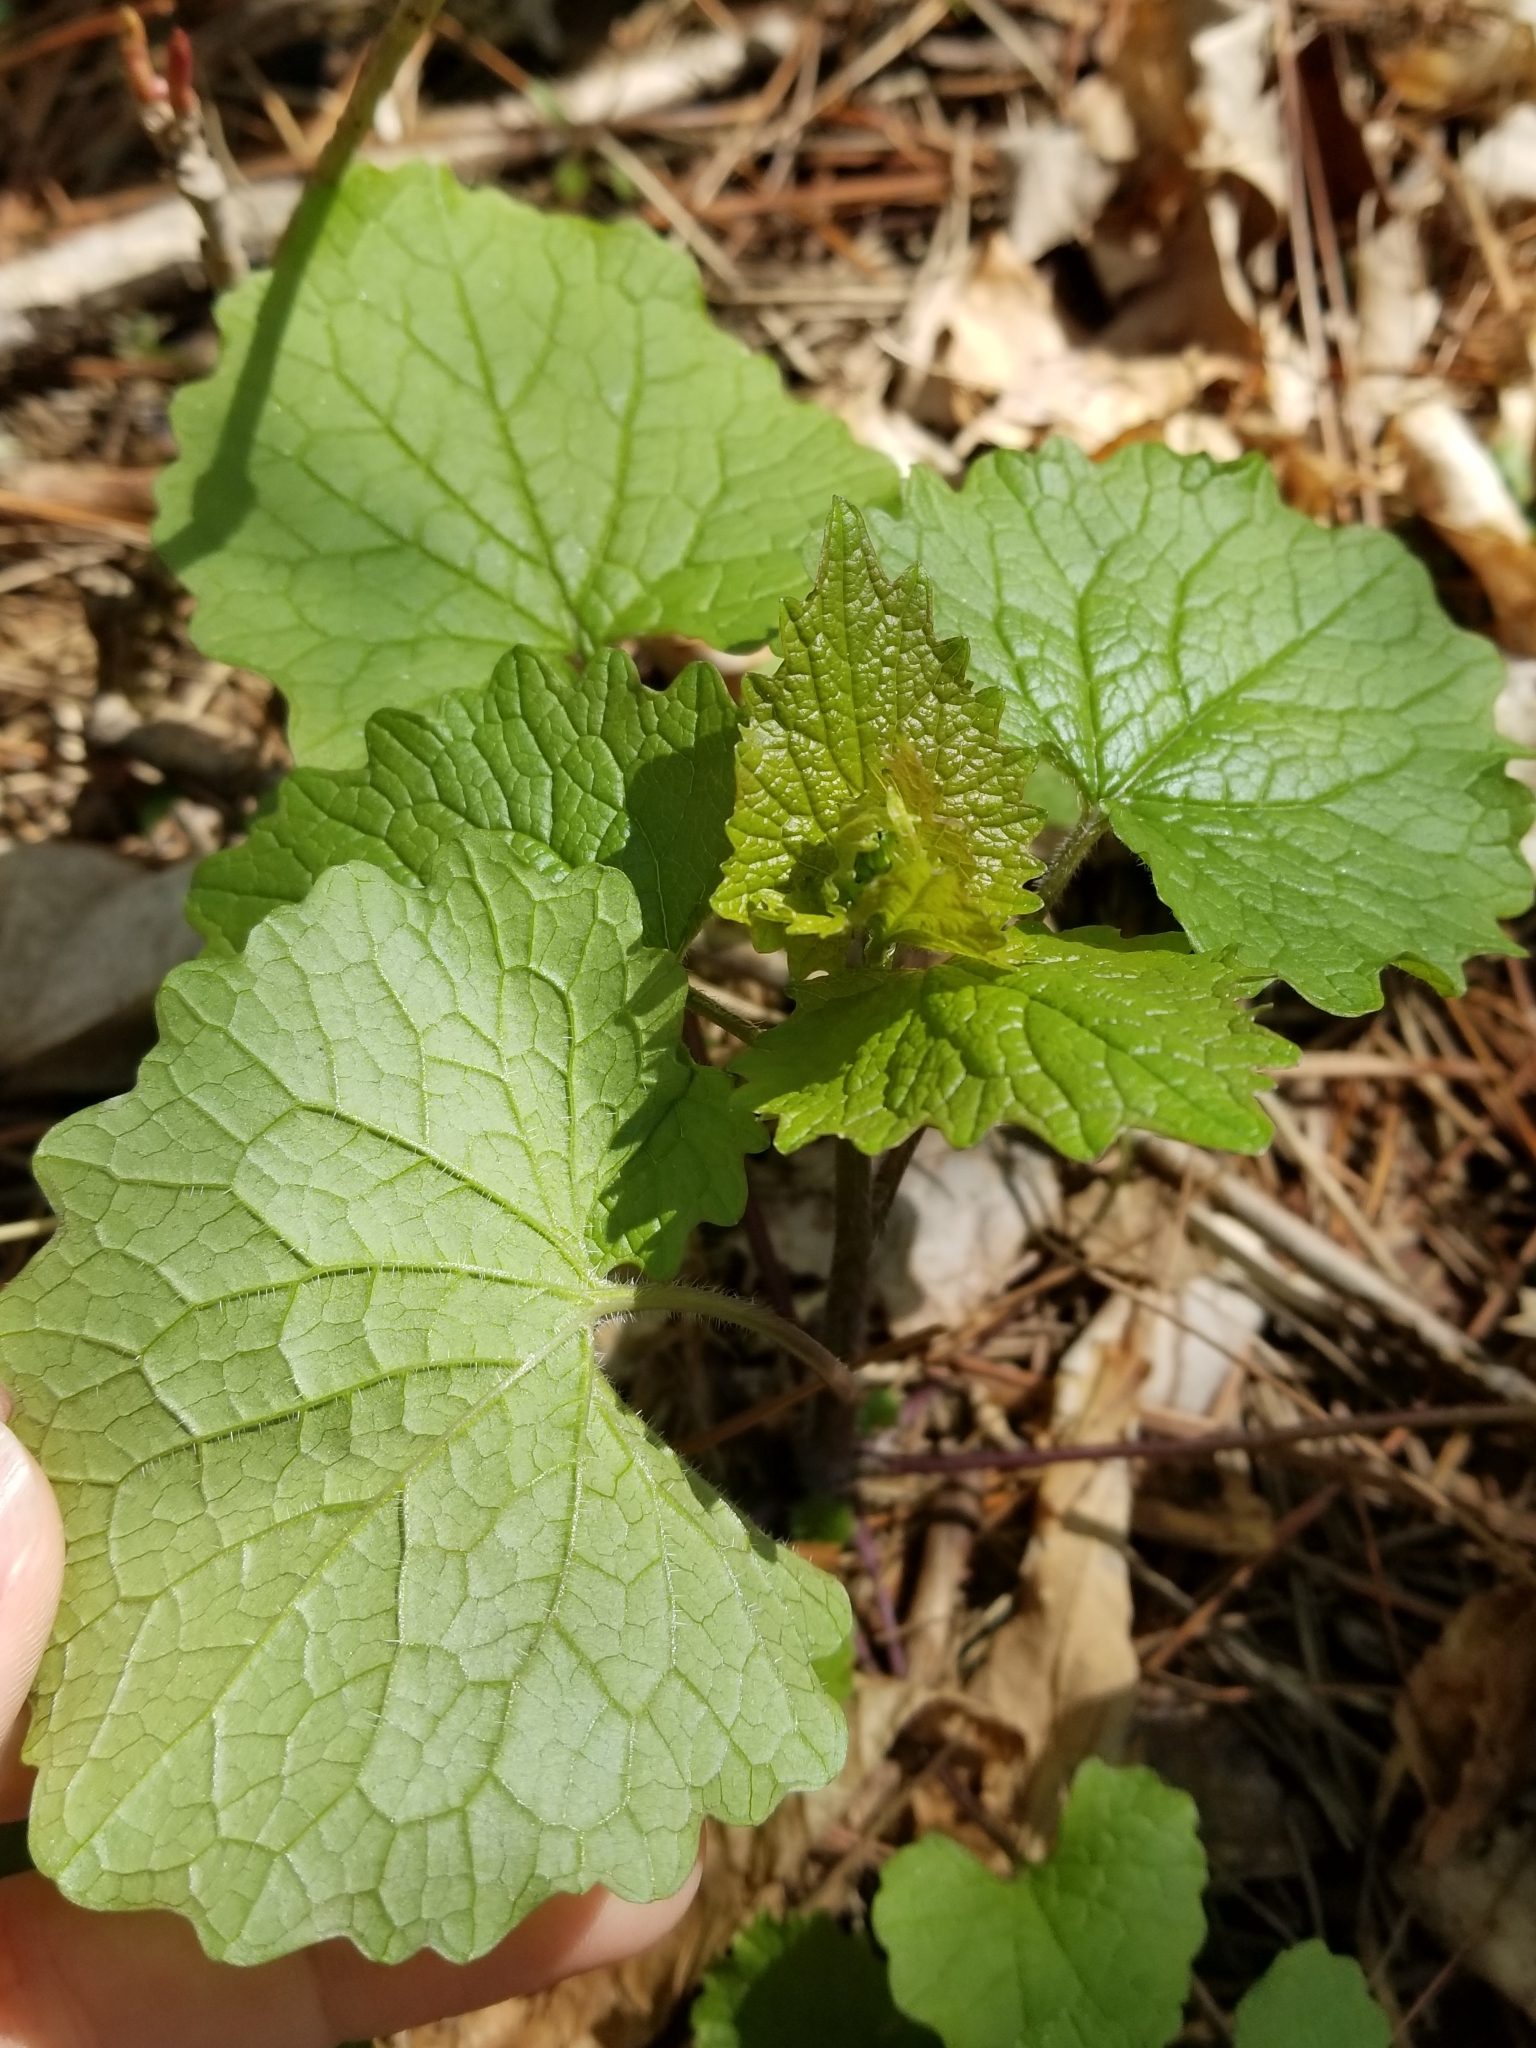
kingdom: Plantae
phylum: Tracheophyta
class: Magnoliopsida
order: Brassicales
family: Brassicaceae
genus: Alliaria
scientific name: Alliaria petiolata
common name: Garlic mustard
